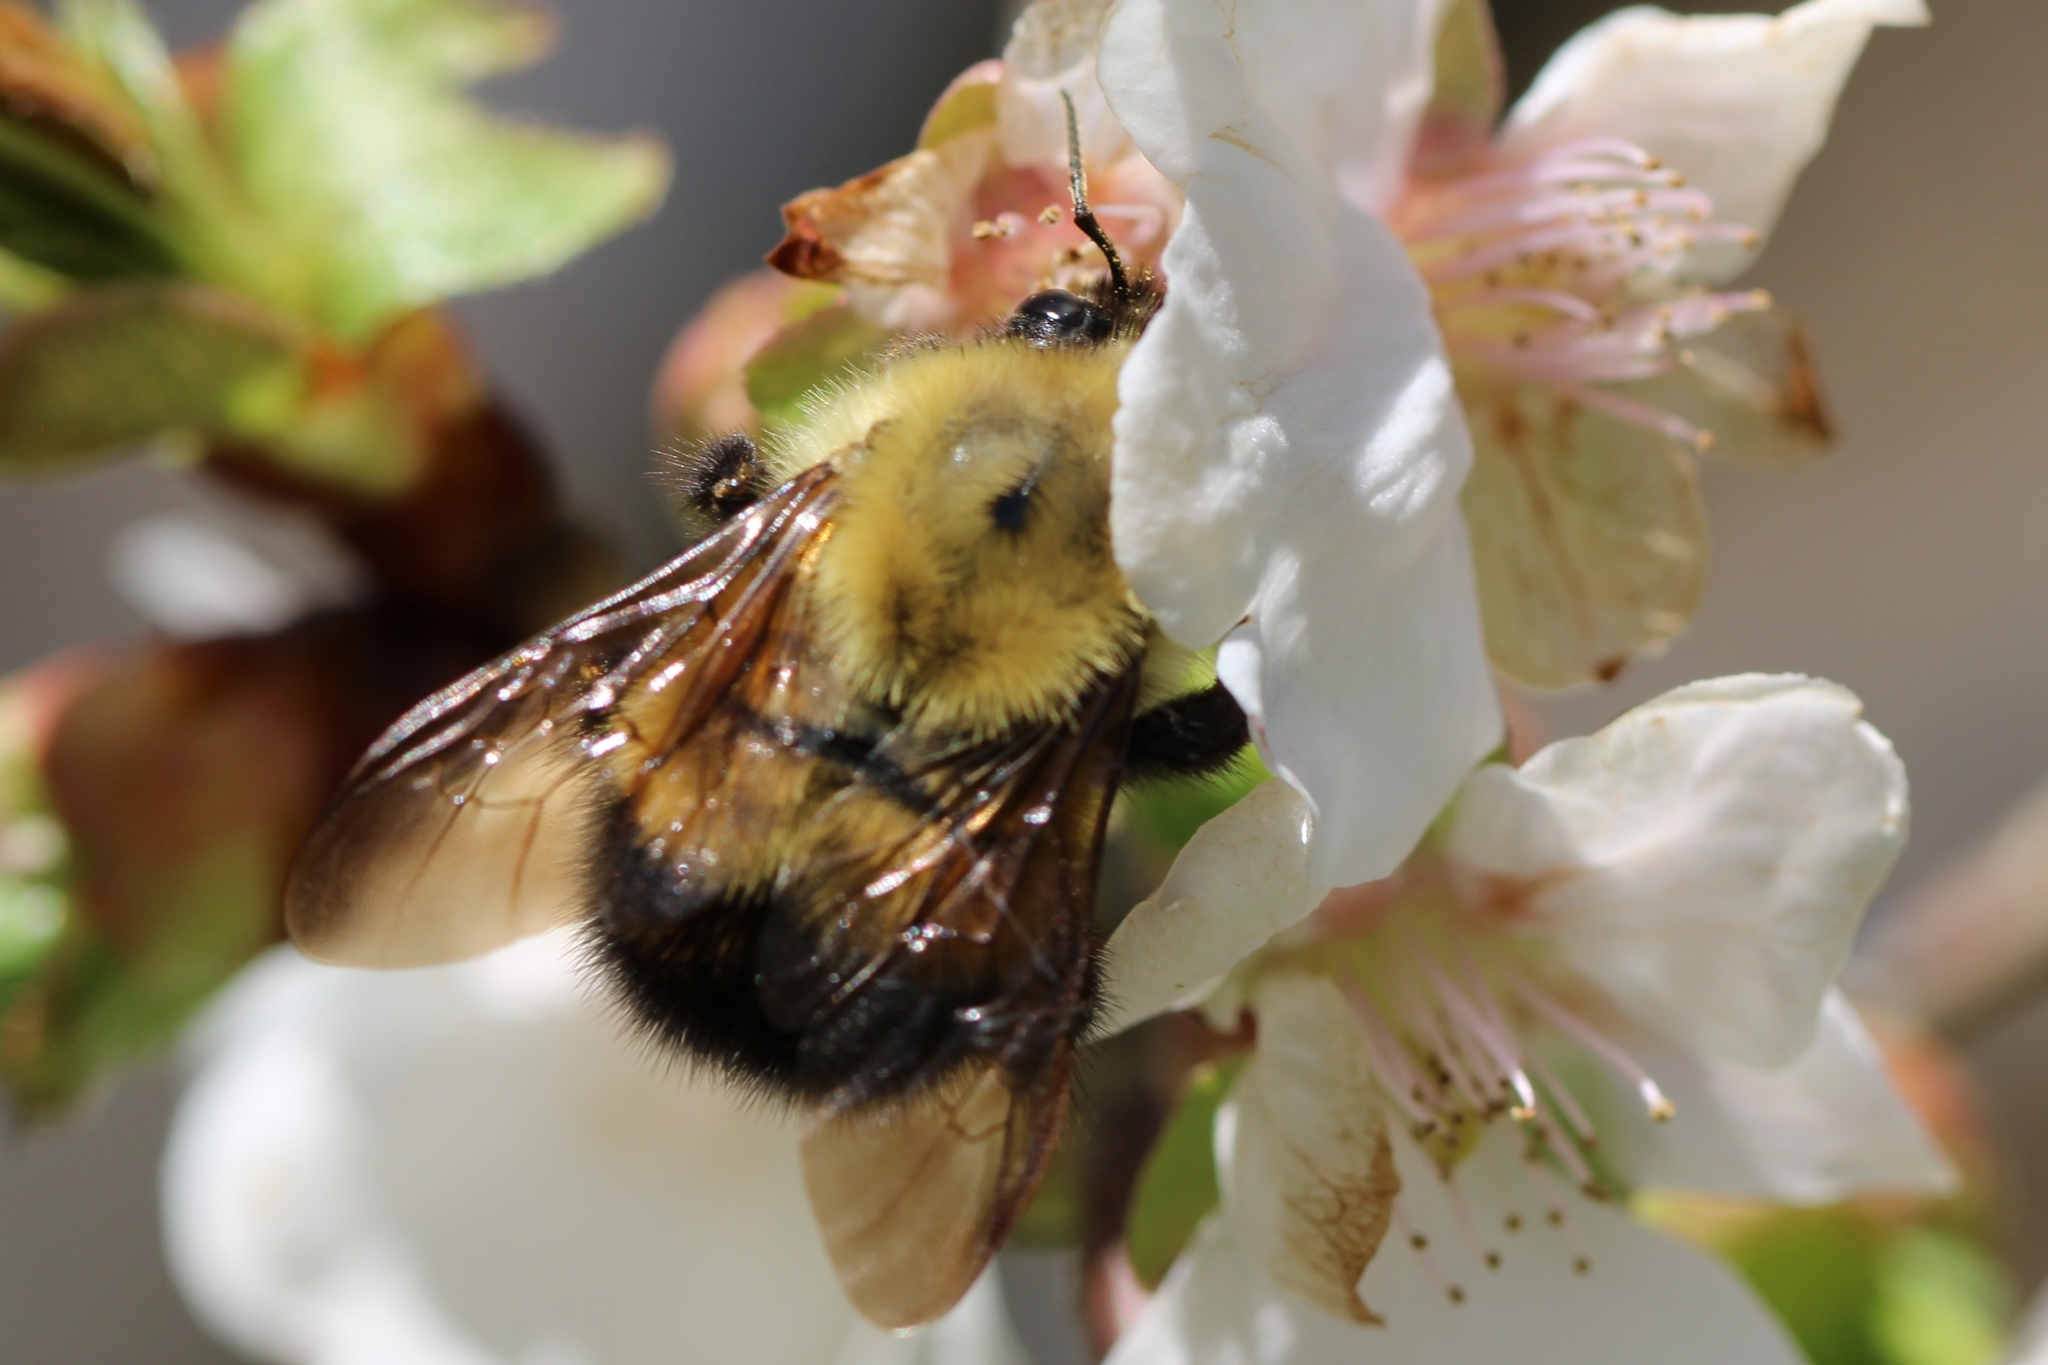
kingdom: Animalia
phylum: Arthropoda
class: Insecta
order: Hymenoptera
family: Apidae
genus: Bombus
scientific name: Bombus perplexus
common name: Confusing bumble bee
